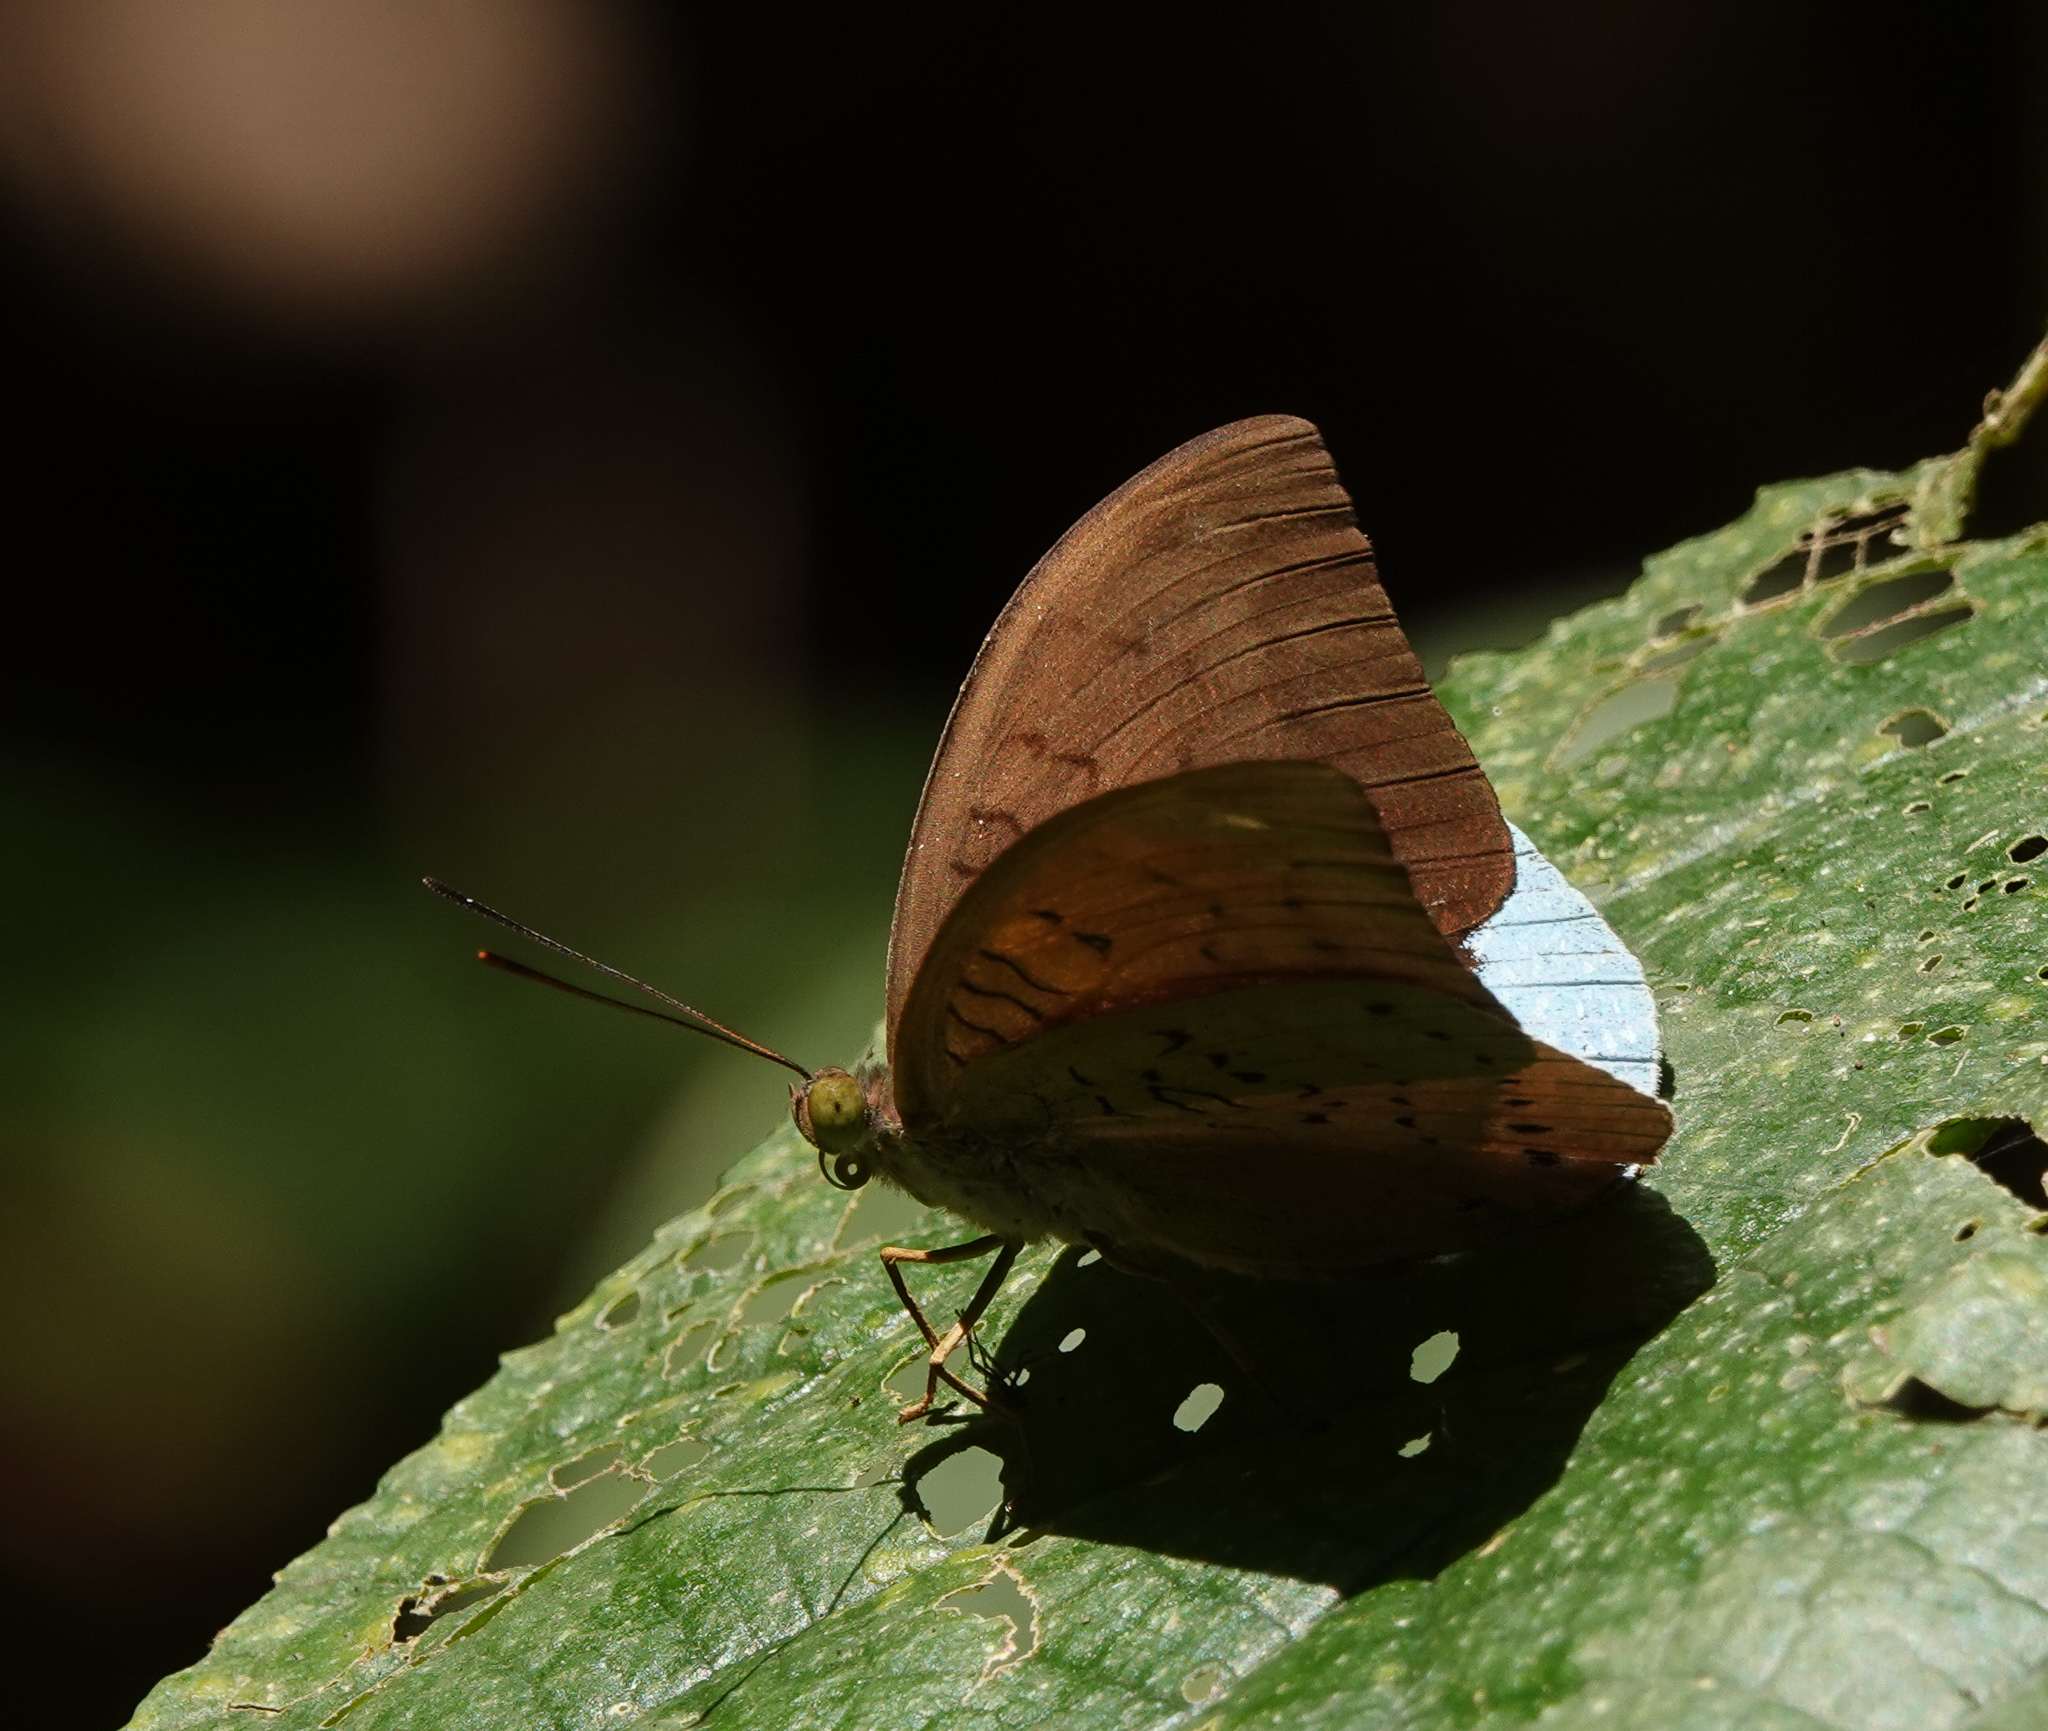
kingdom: Animalia
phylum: Arthropoda
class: Insecta
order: Lepidoptera
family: Nymphalidae
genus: Tanaecia
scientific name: Tanaecia julii
